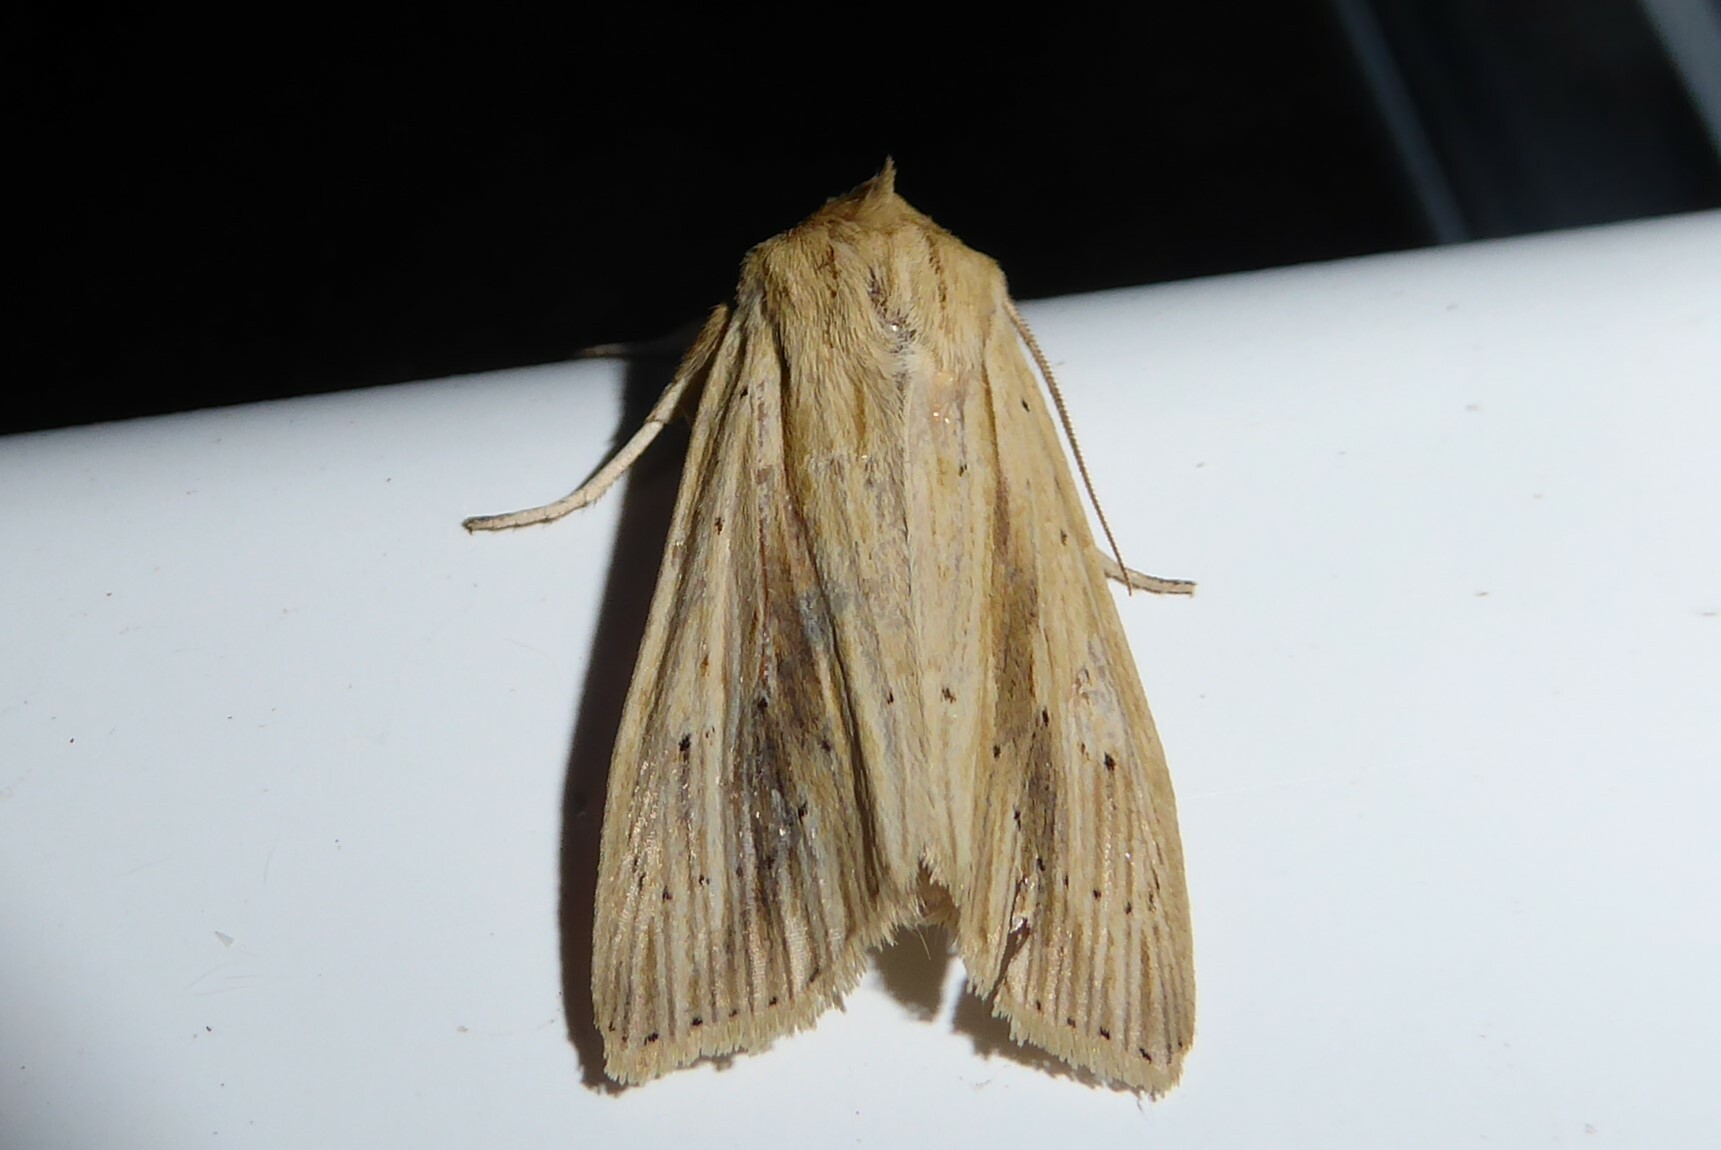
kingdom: Animalia
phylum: Arthropoda
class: Insecta
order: Lepidoptera
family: Noctuidae
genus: Ichneutica
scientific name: Ichneutica semivittata
